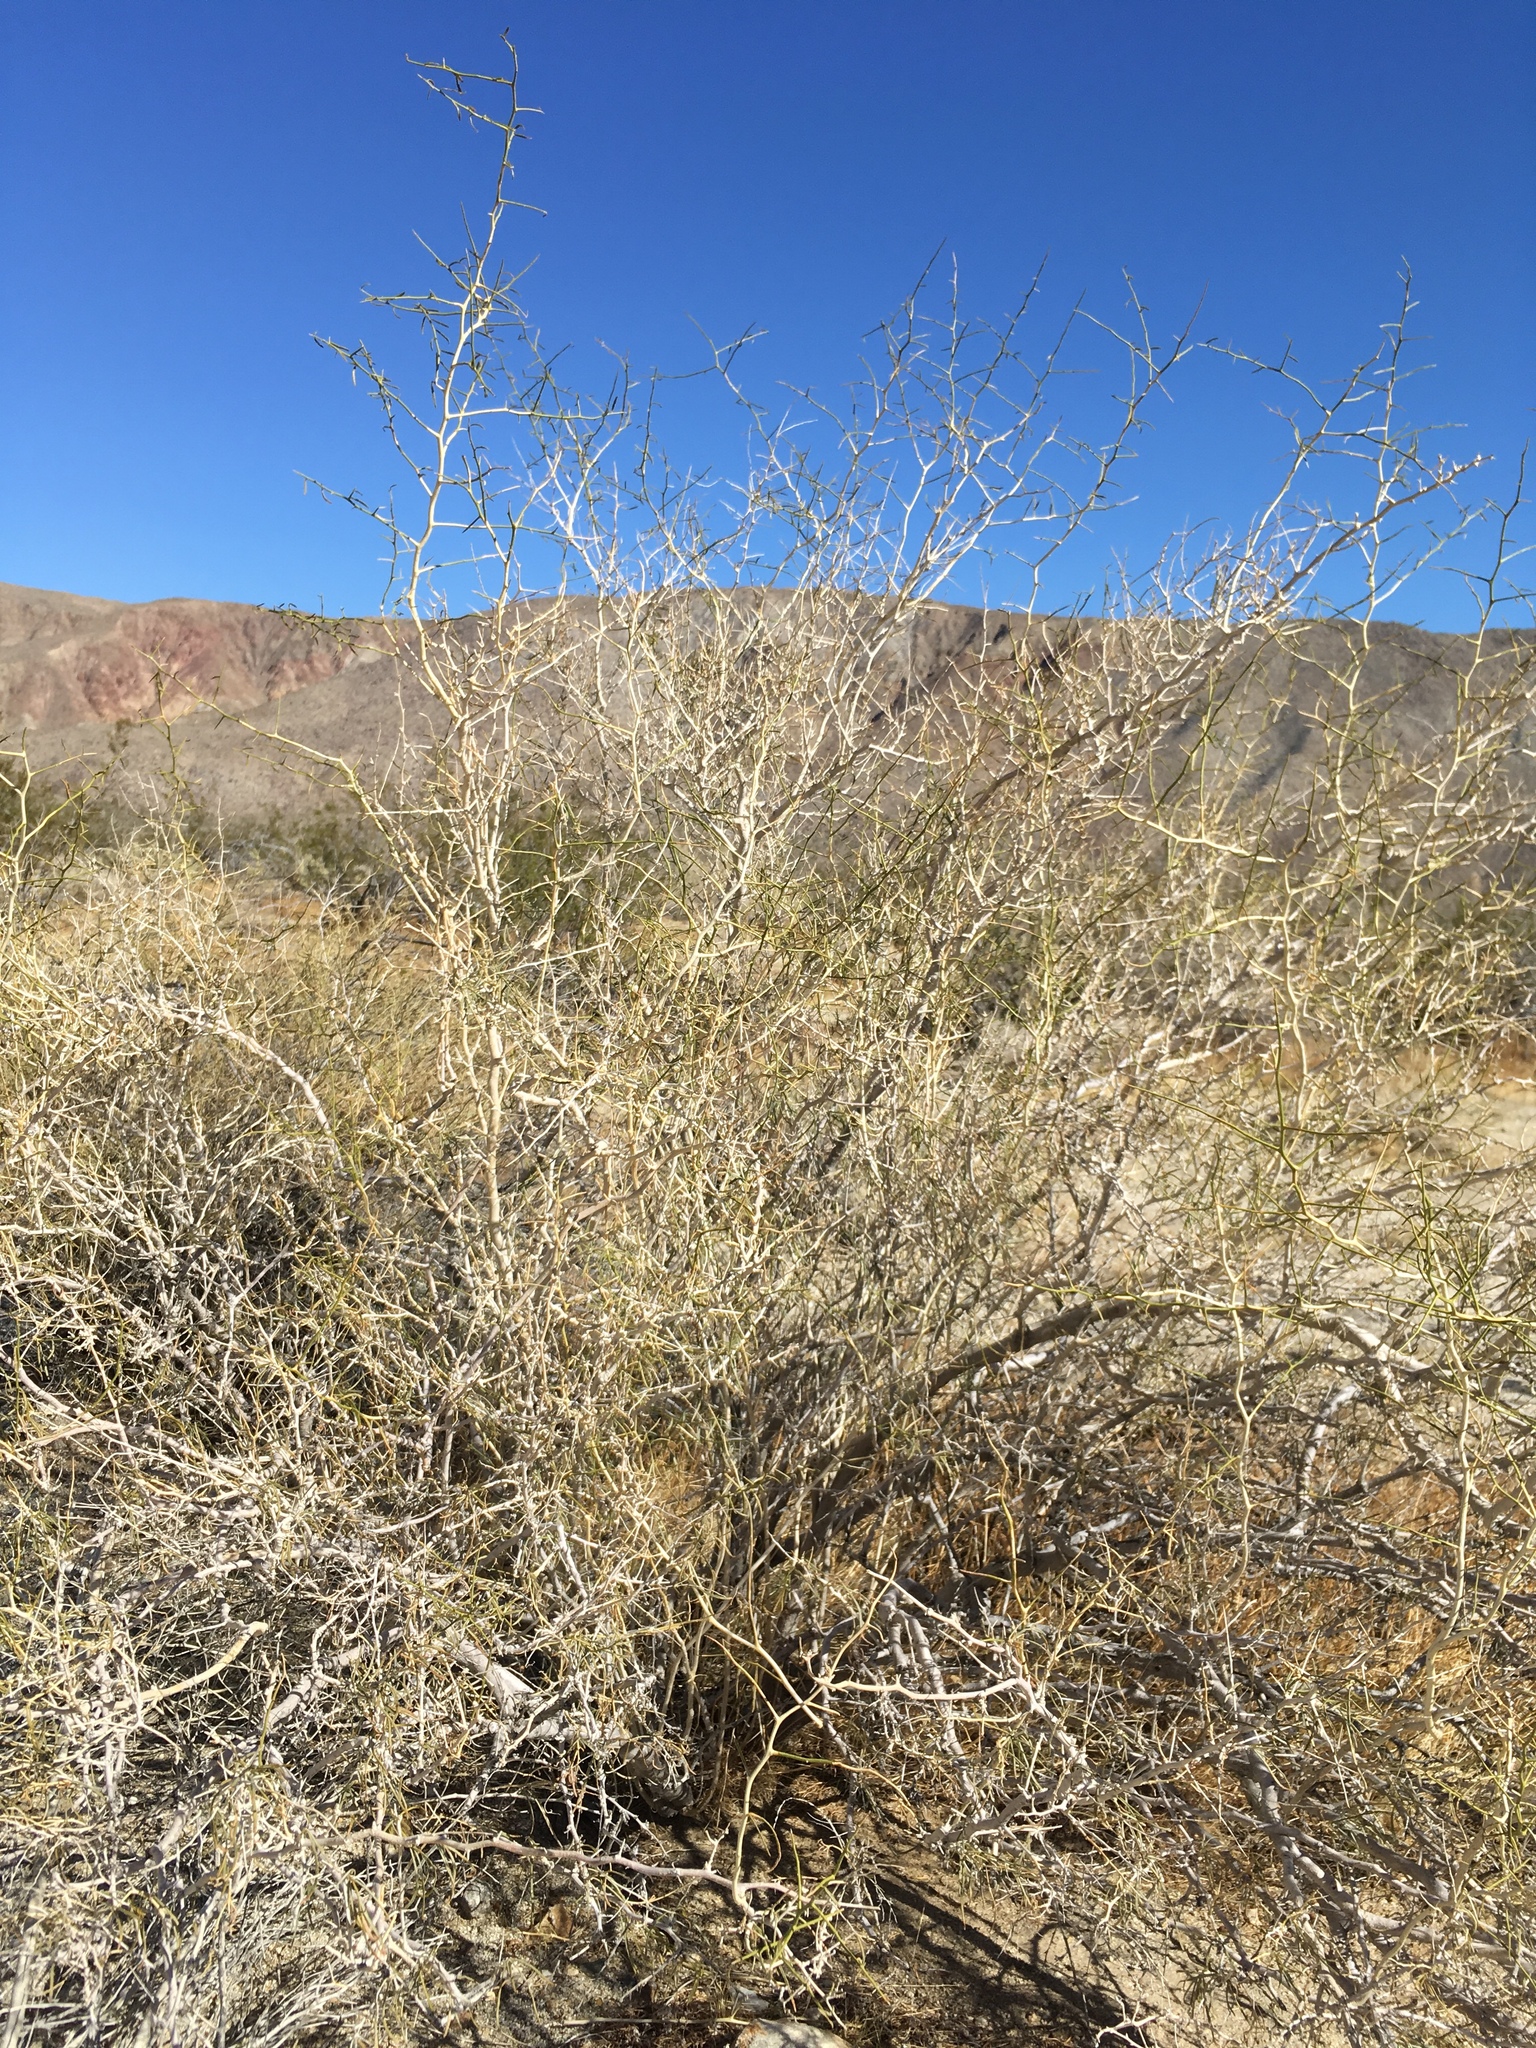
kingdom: Plantae
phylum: Tracheophyta
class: Magnoliopsida
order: Fabales
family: Fabaceae
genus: Psorothamnus
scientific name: Psorothamnus schottii
